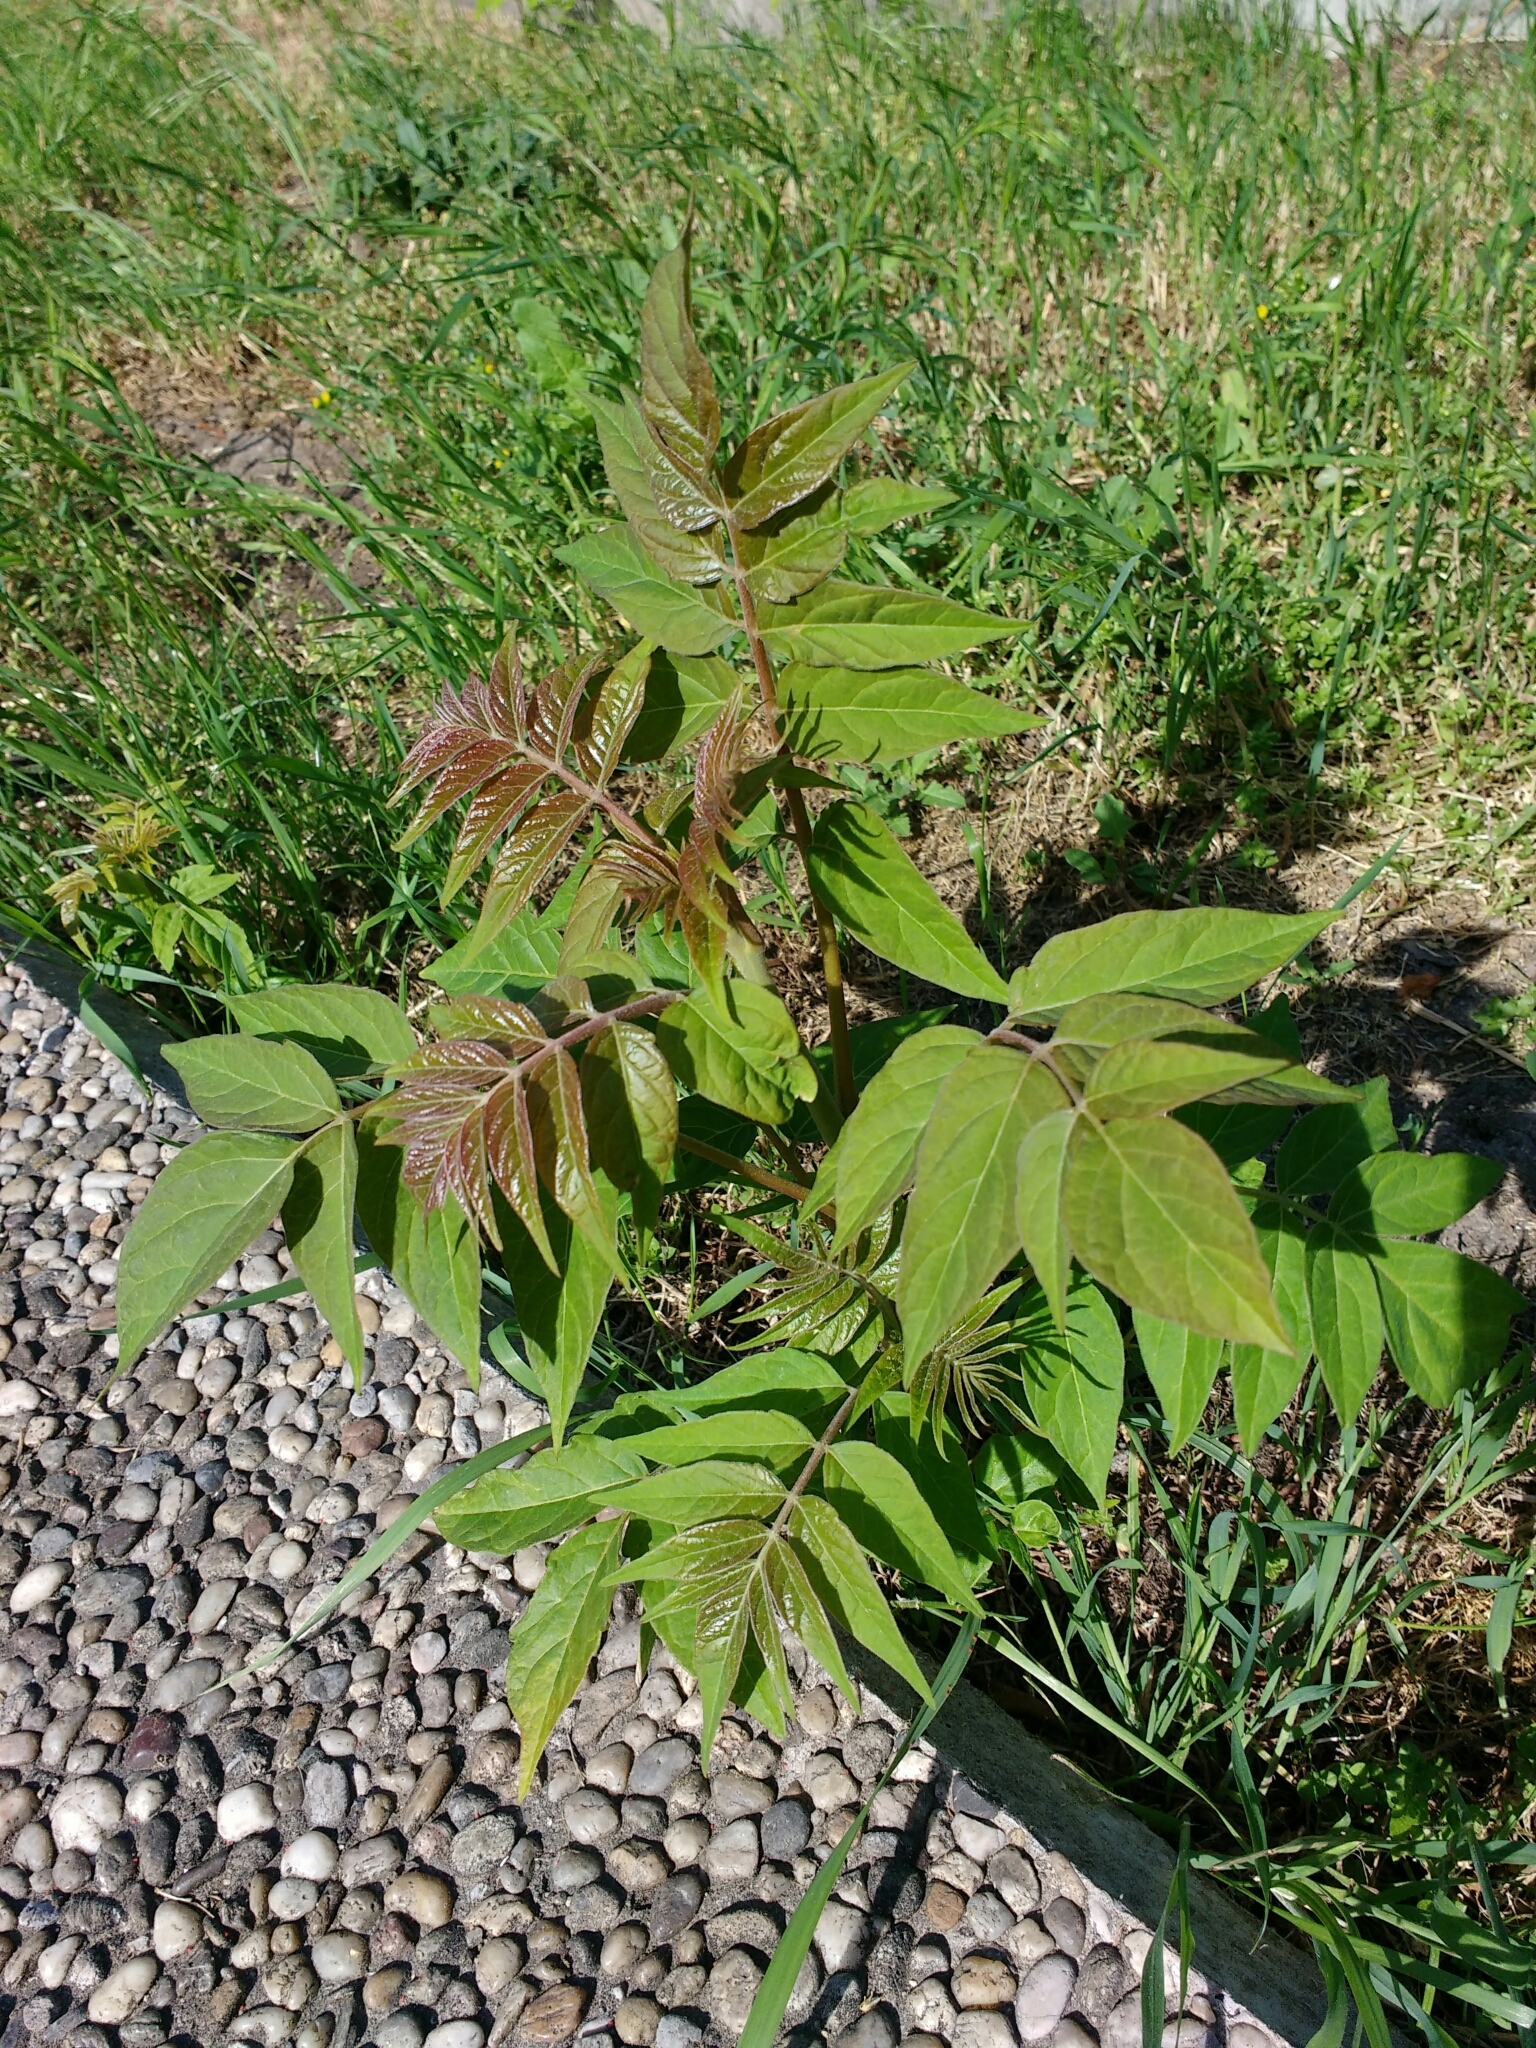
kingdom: Plantae
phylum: Tracheophyta
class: Magnoliopsida
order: Sapindales
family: Simaroubaceae
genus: Ailanthus
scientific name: Ailanthus altissima
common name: Tree-of-heaven
